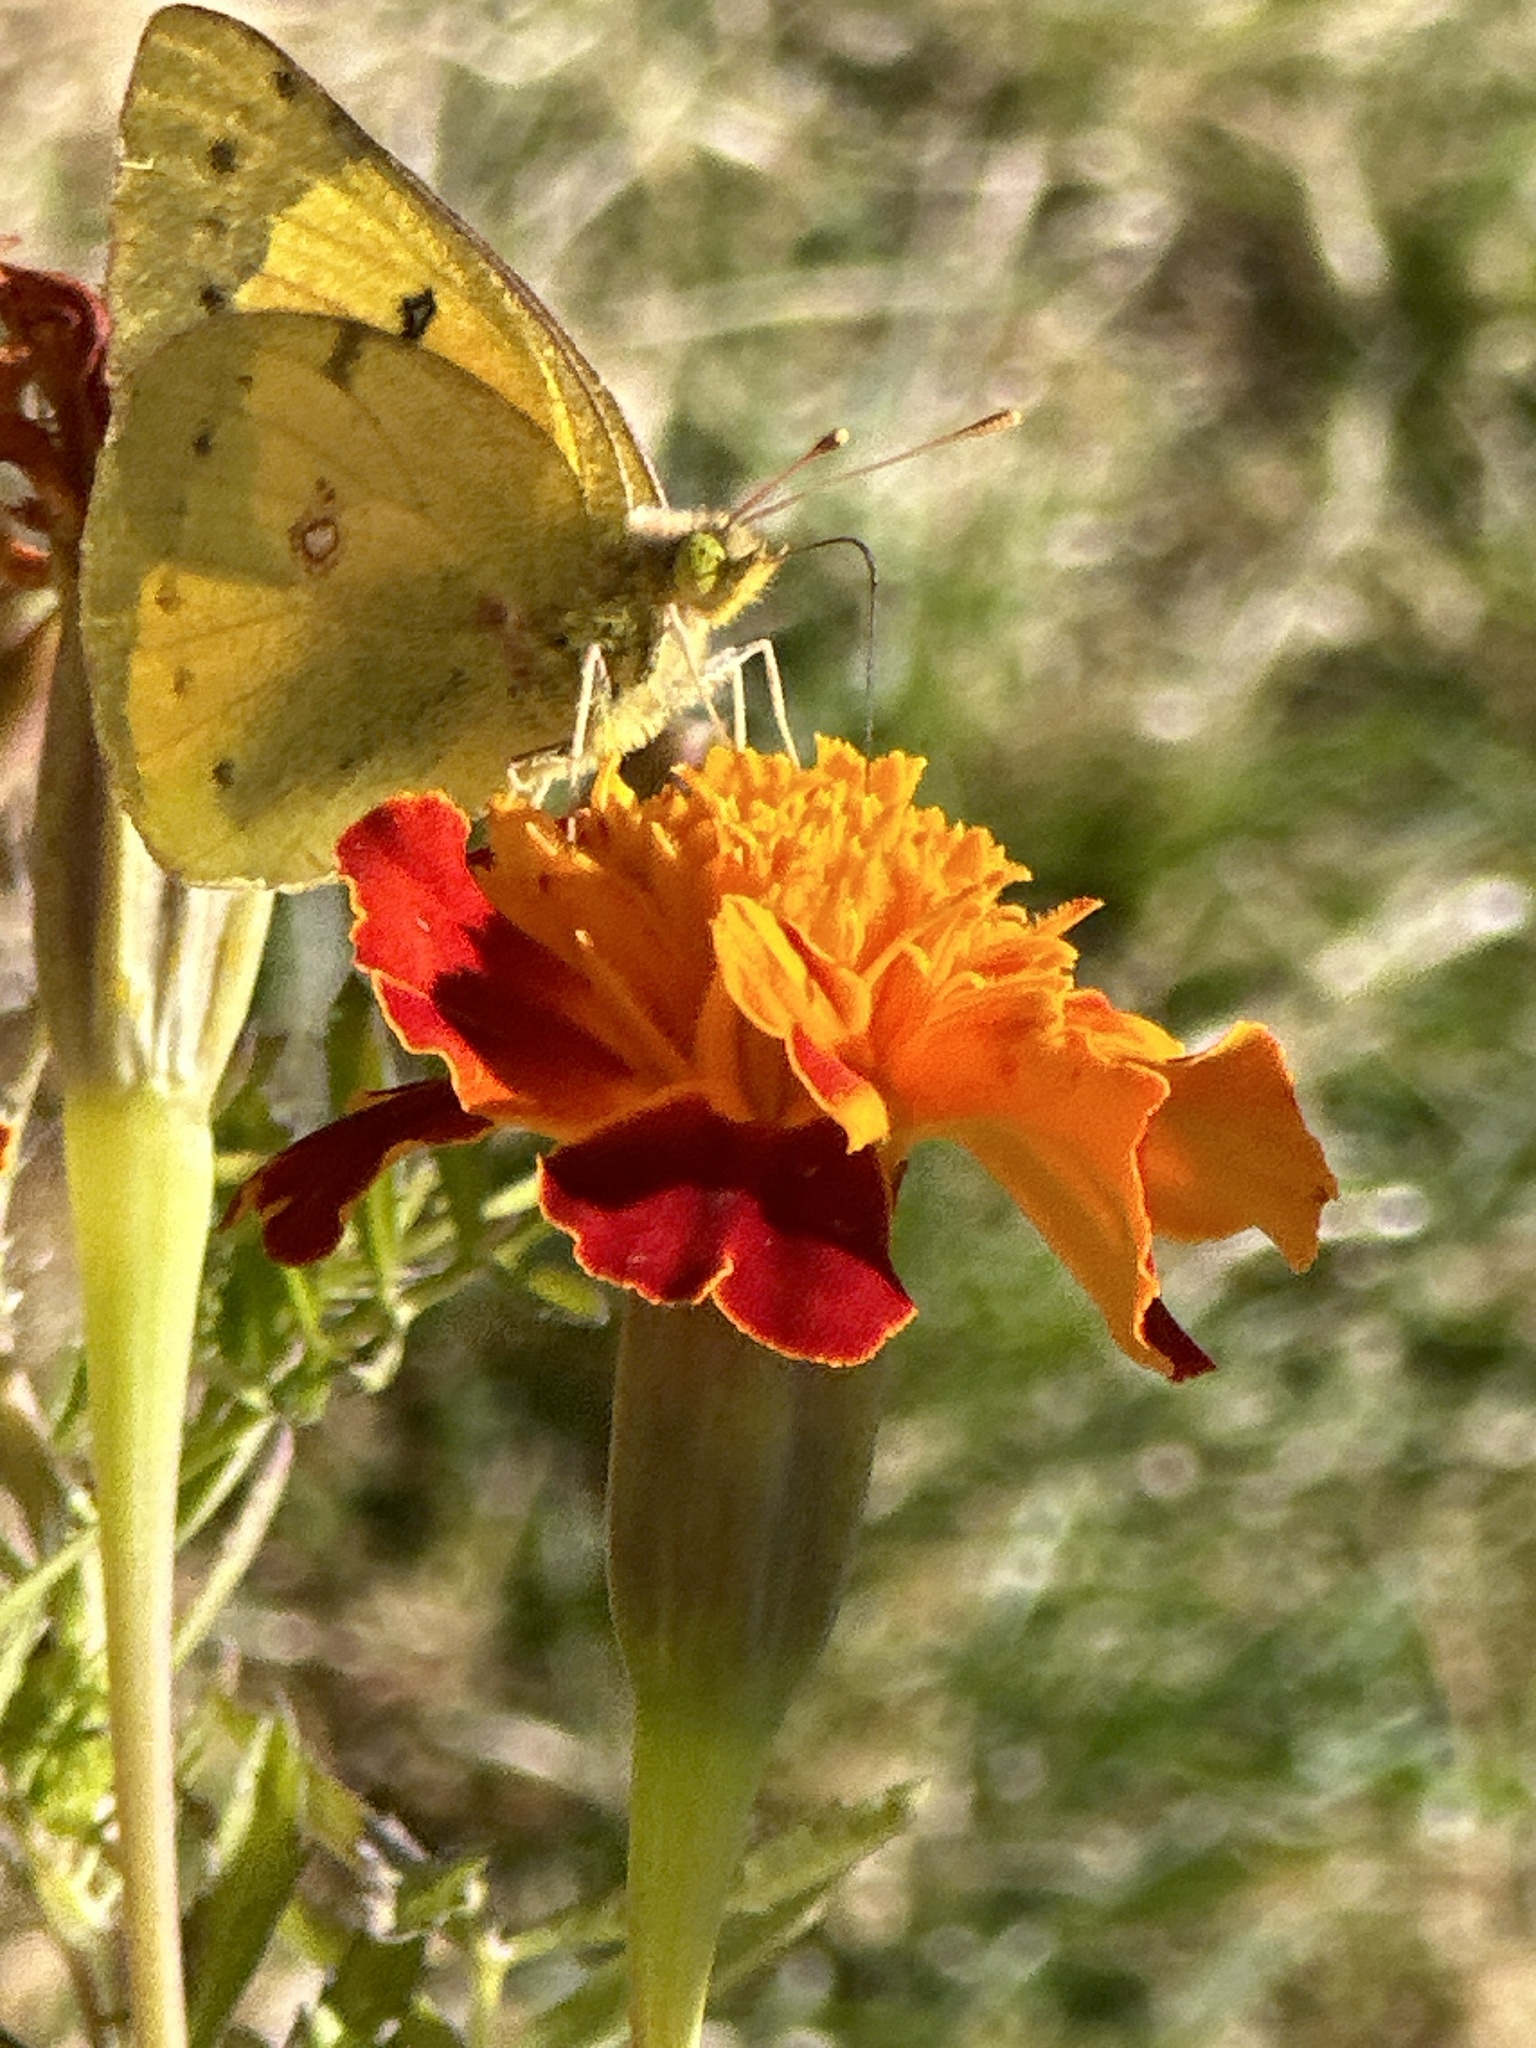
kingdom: Animalia
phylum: Arthropoda
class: Insecta
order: Lepidoptera
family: Pieridae
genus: Colias
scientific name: Colias eurytheme
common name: Alfalfa butterfly
